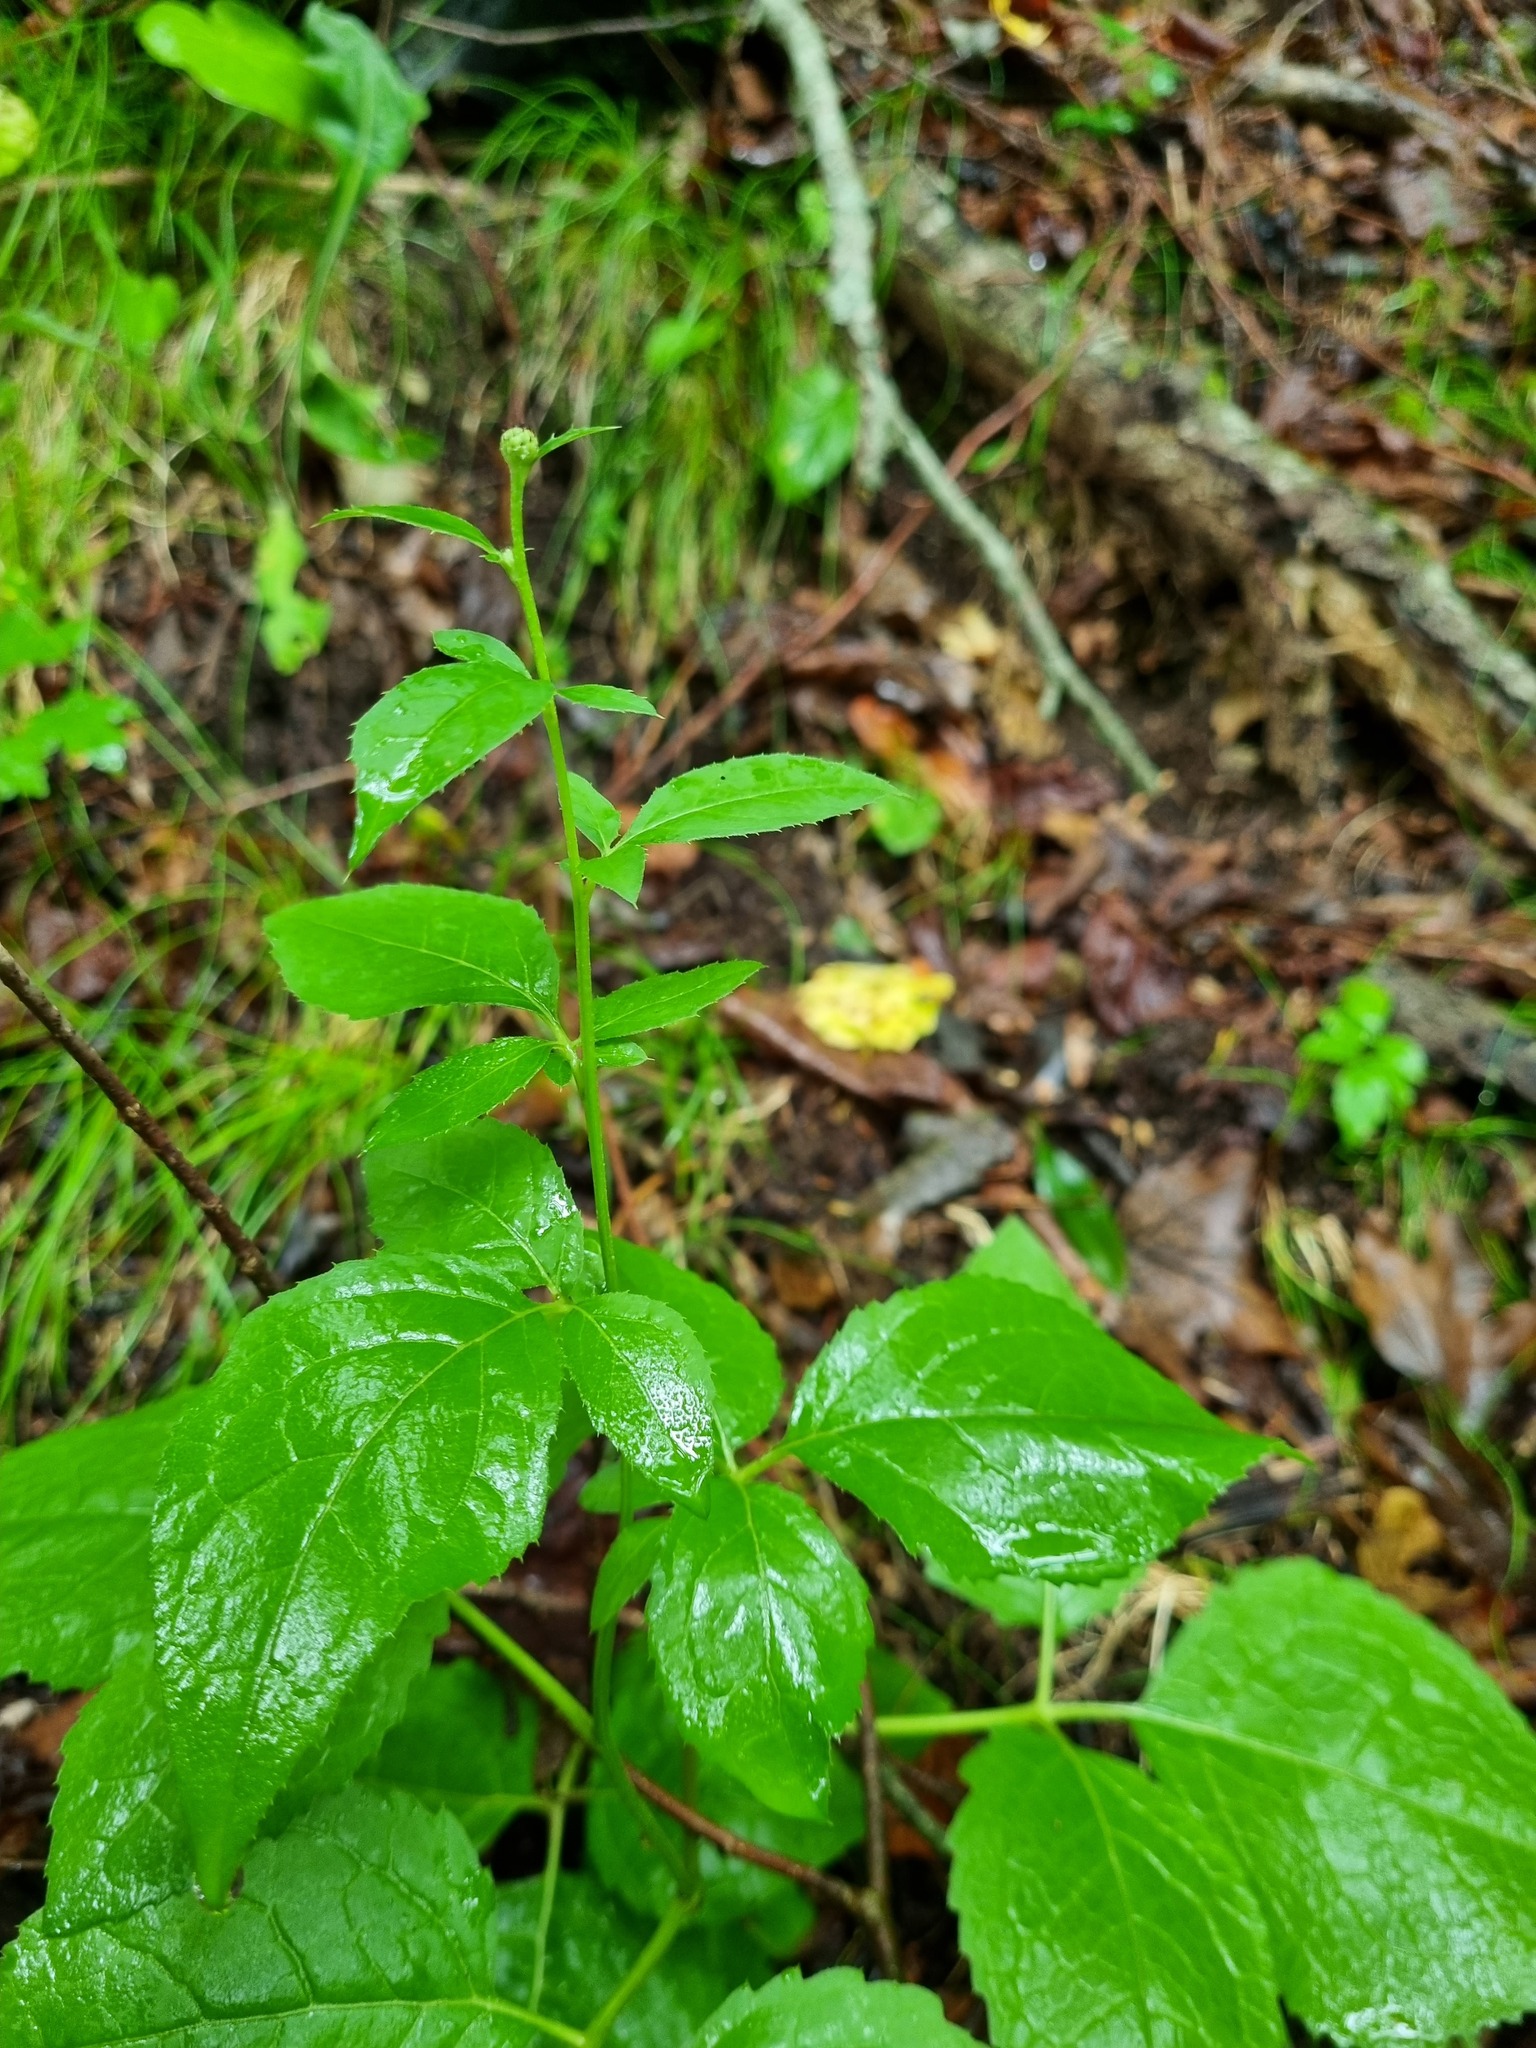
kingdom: Plantae
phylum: Tracheophyta
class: Magnoliopsida
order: Asterales
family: Asteraceae
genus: Klasea
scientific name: Klasea quinquefolia
